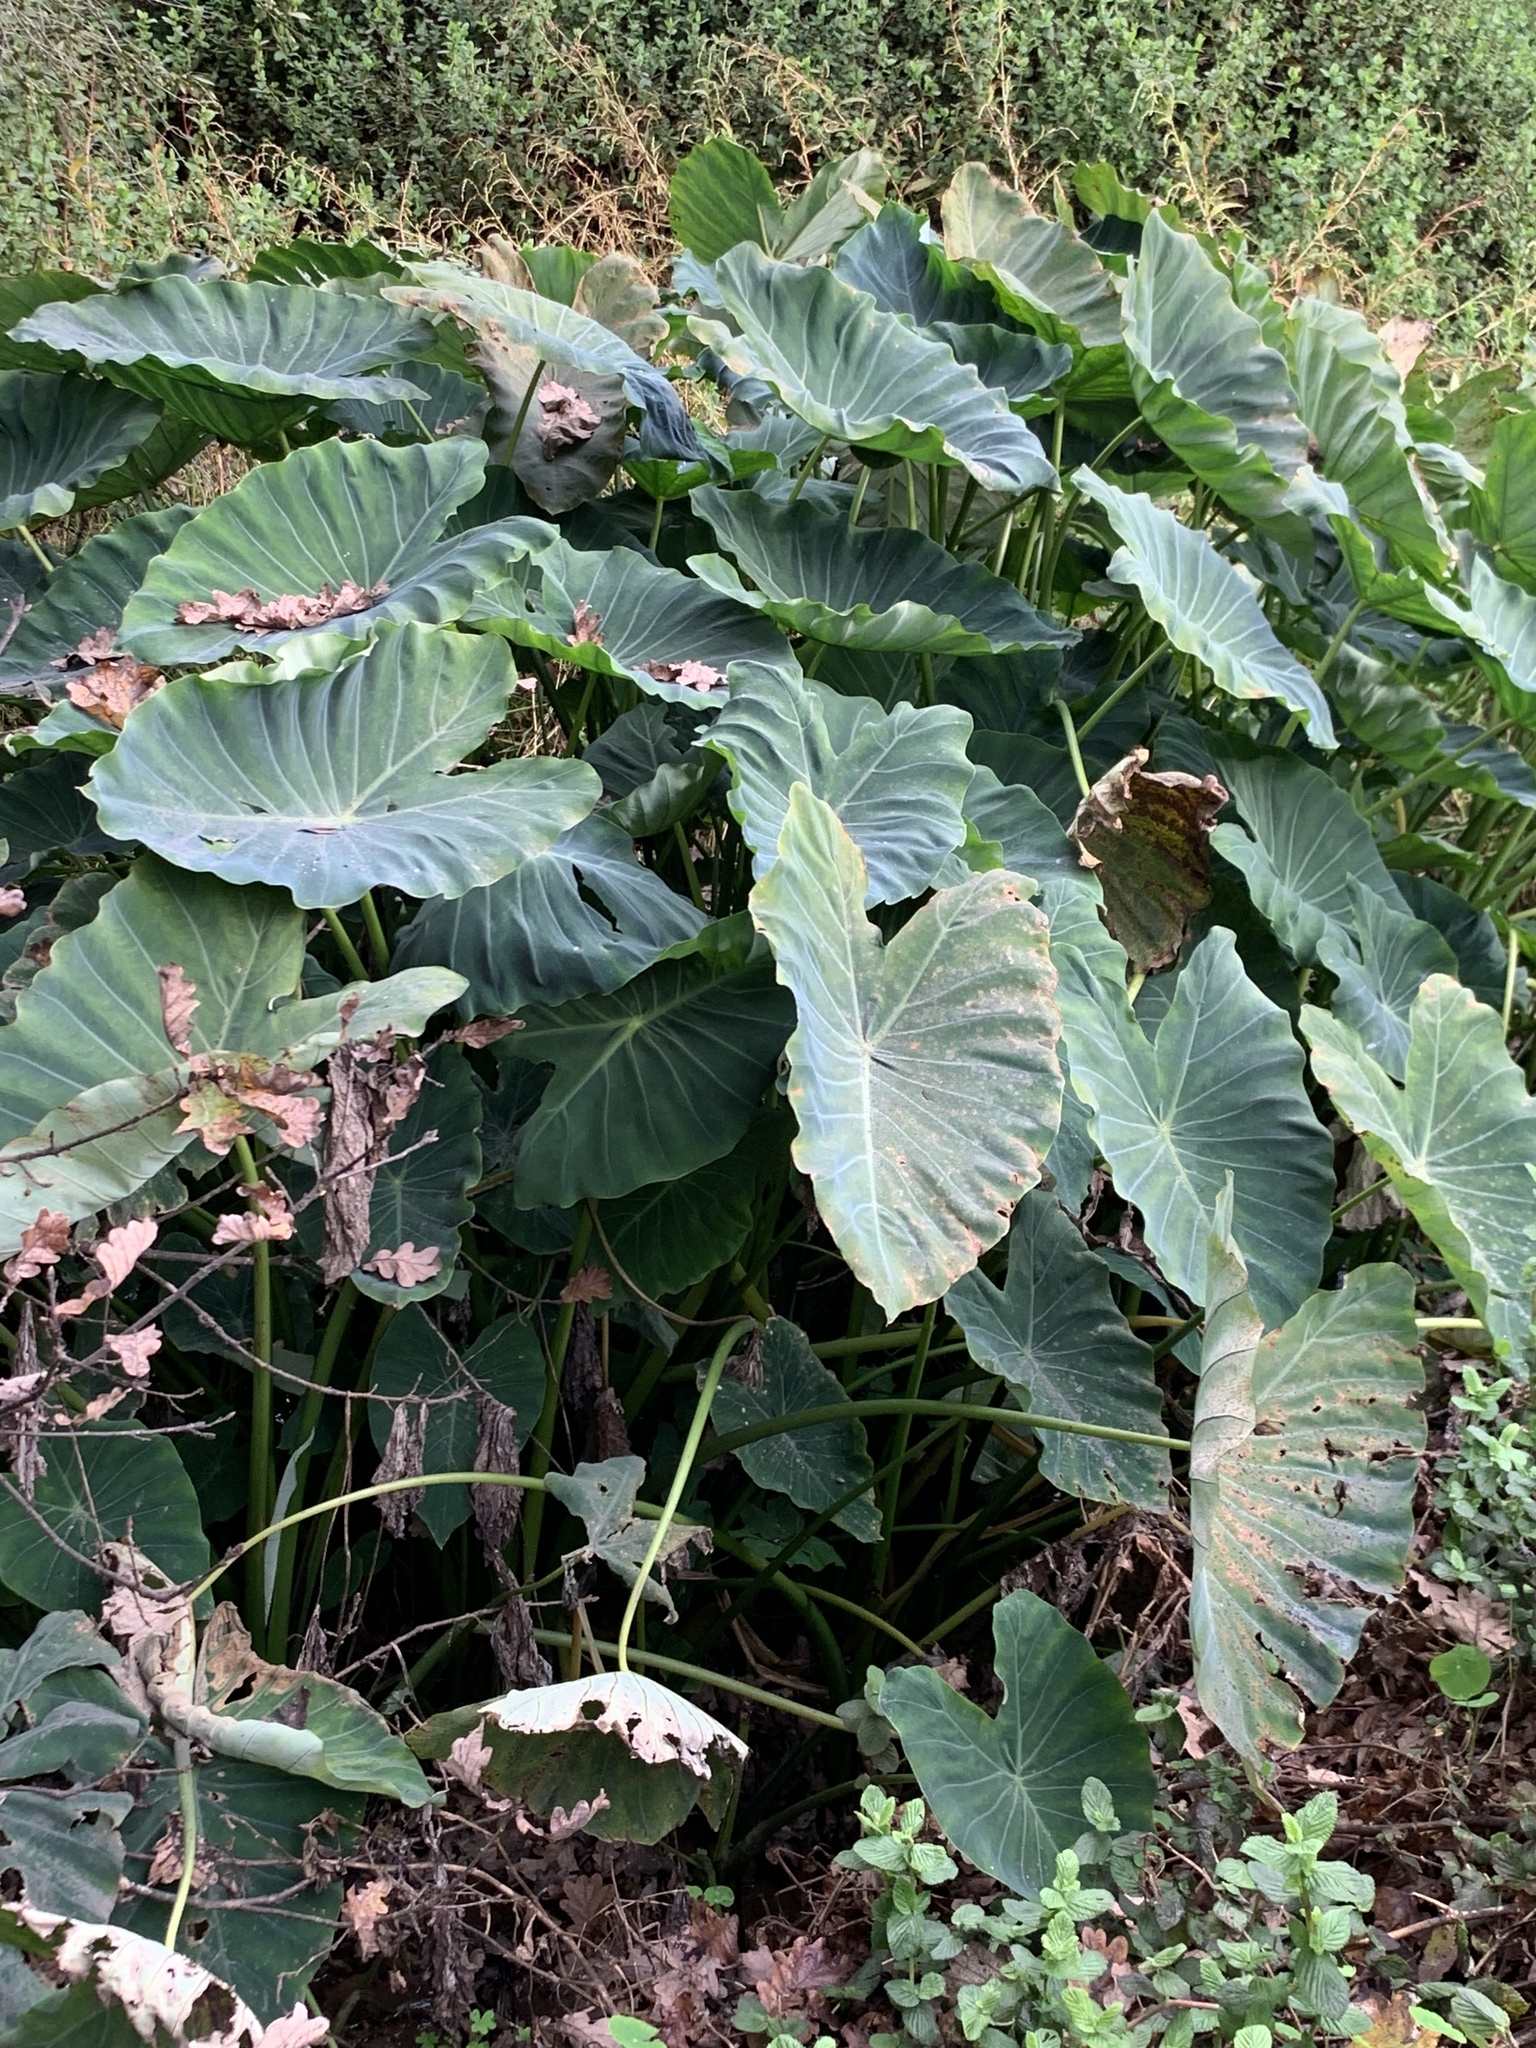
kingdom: Plantae
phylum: Tracheophyta
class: Liliopsida
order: Alismatales
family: Araceae
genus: Colocasia
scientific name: Colocasia esculenta
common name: Taro
